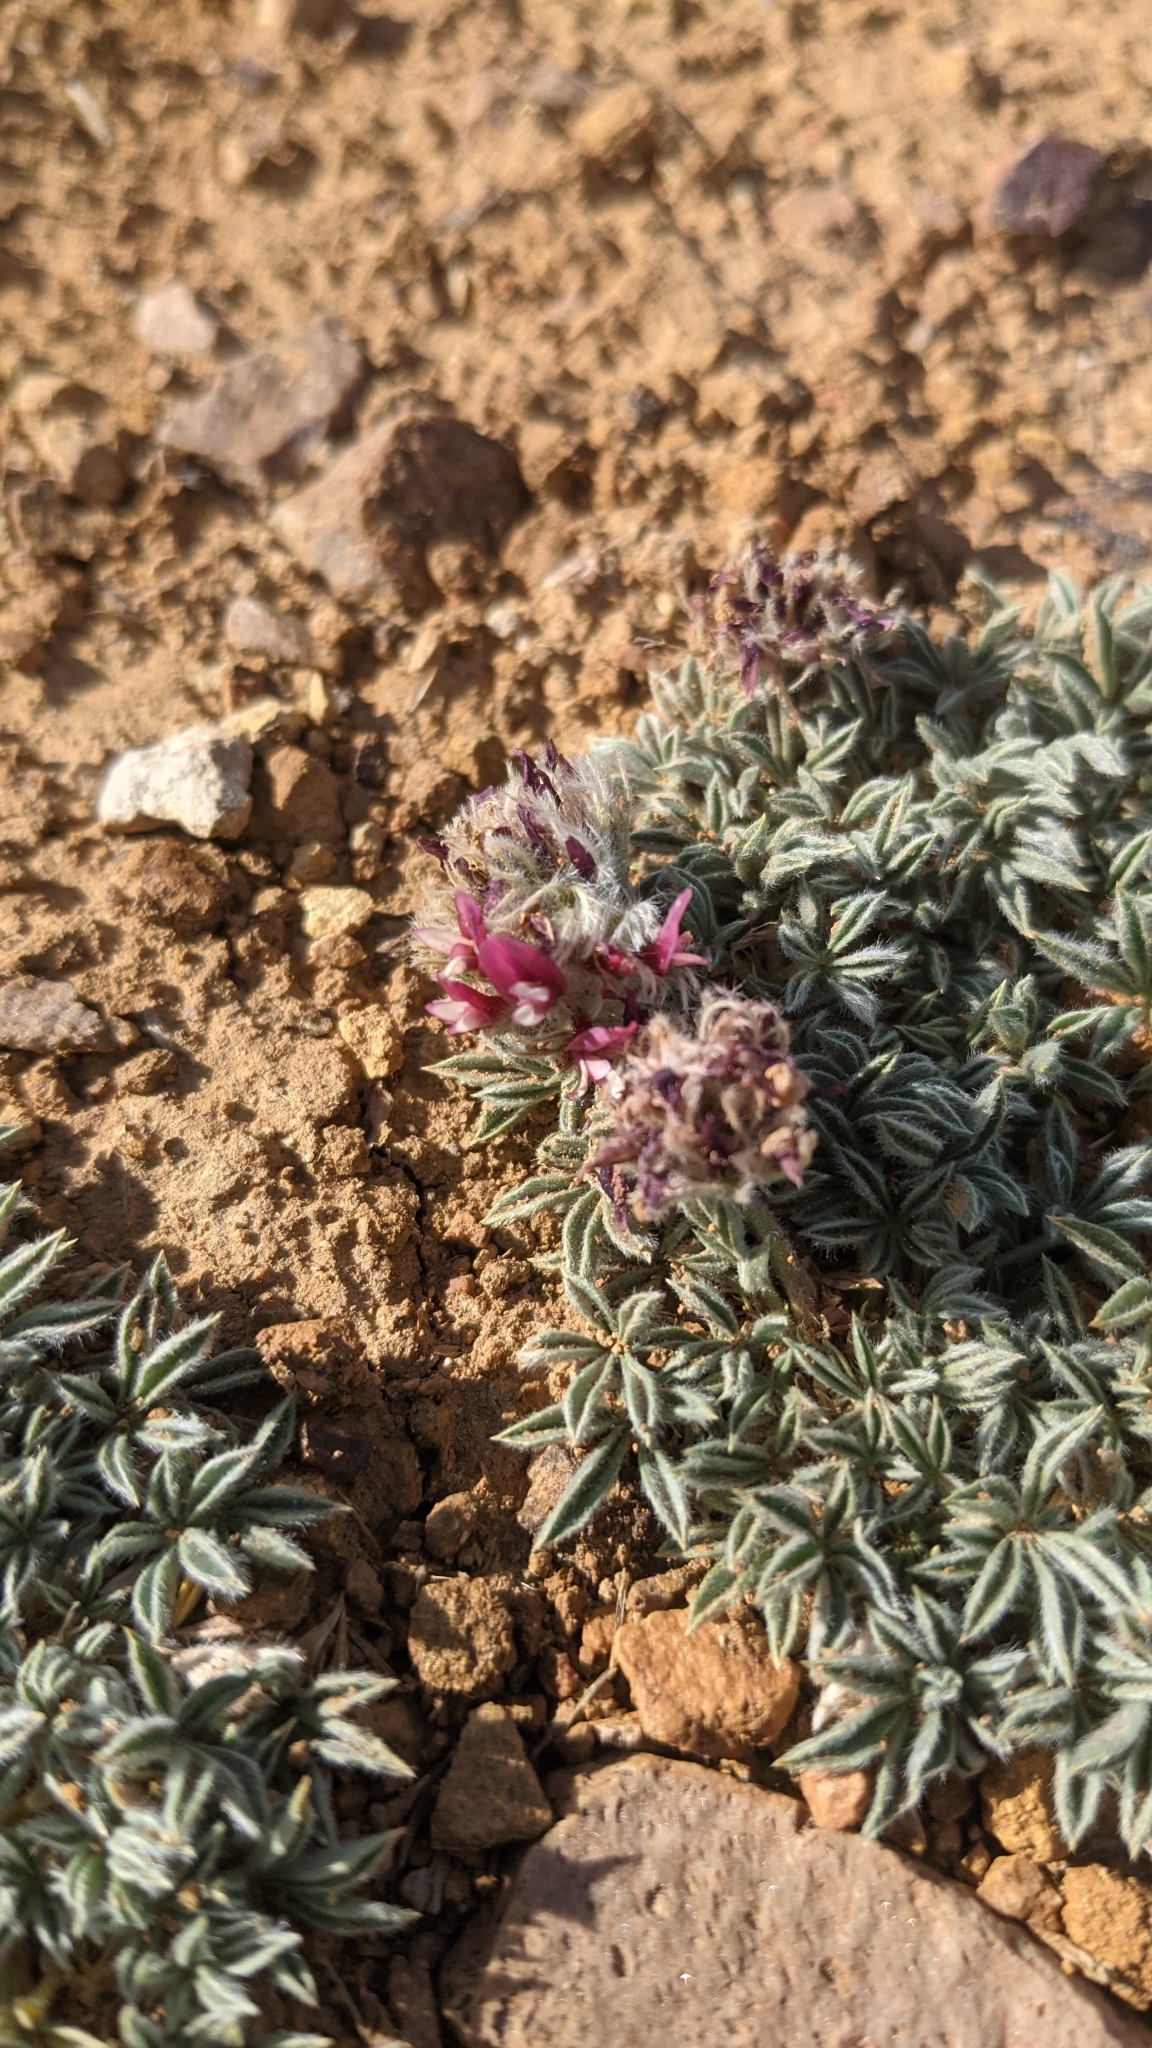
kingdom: Plantae
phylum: Tracheophyta
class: Magnoliopsida
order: Fabales
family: Fabaceae
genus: Trifolium
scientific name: Trifolium andersonii
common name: Anderson's clover
